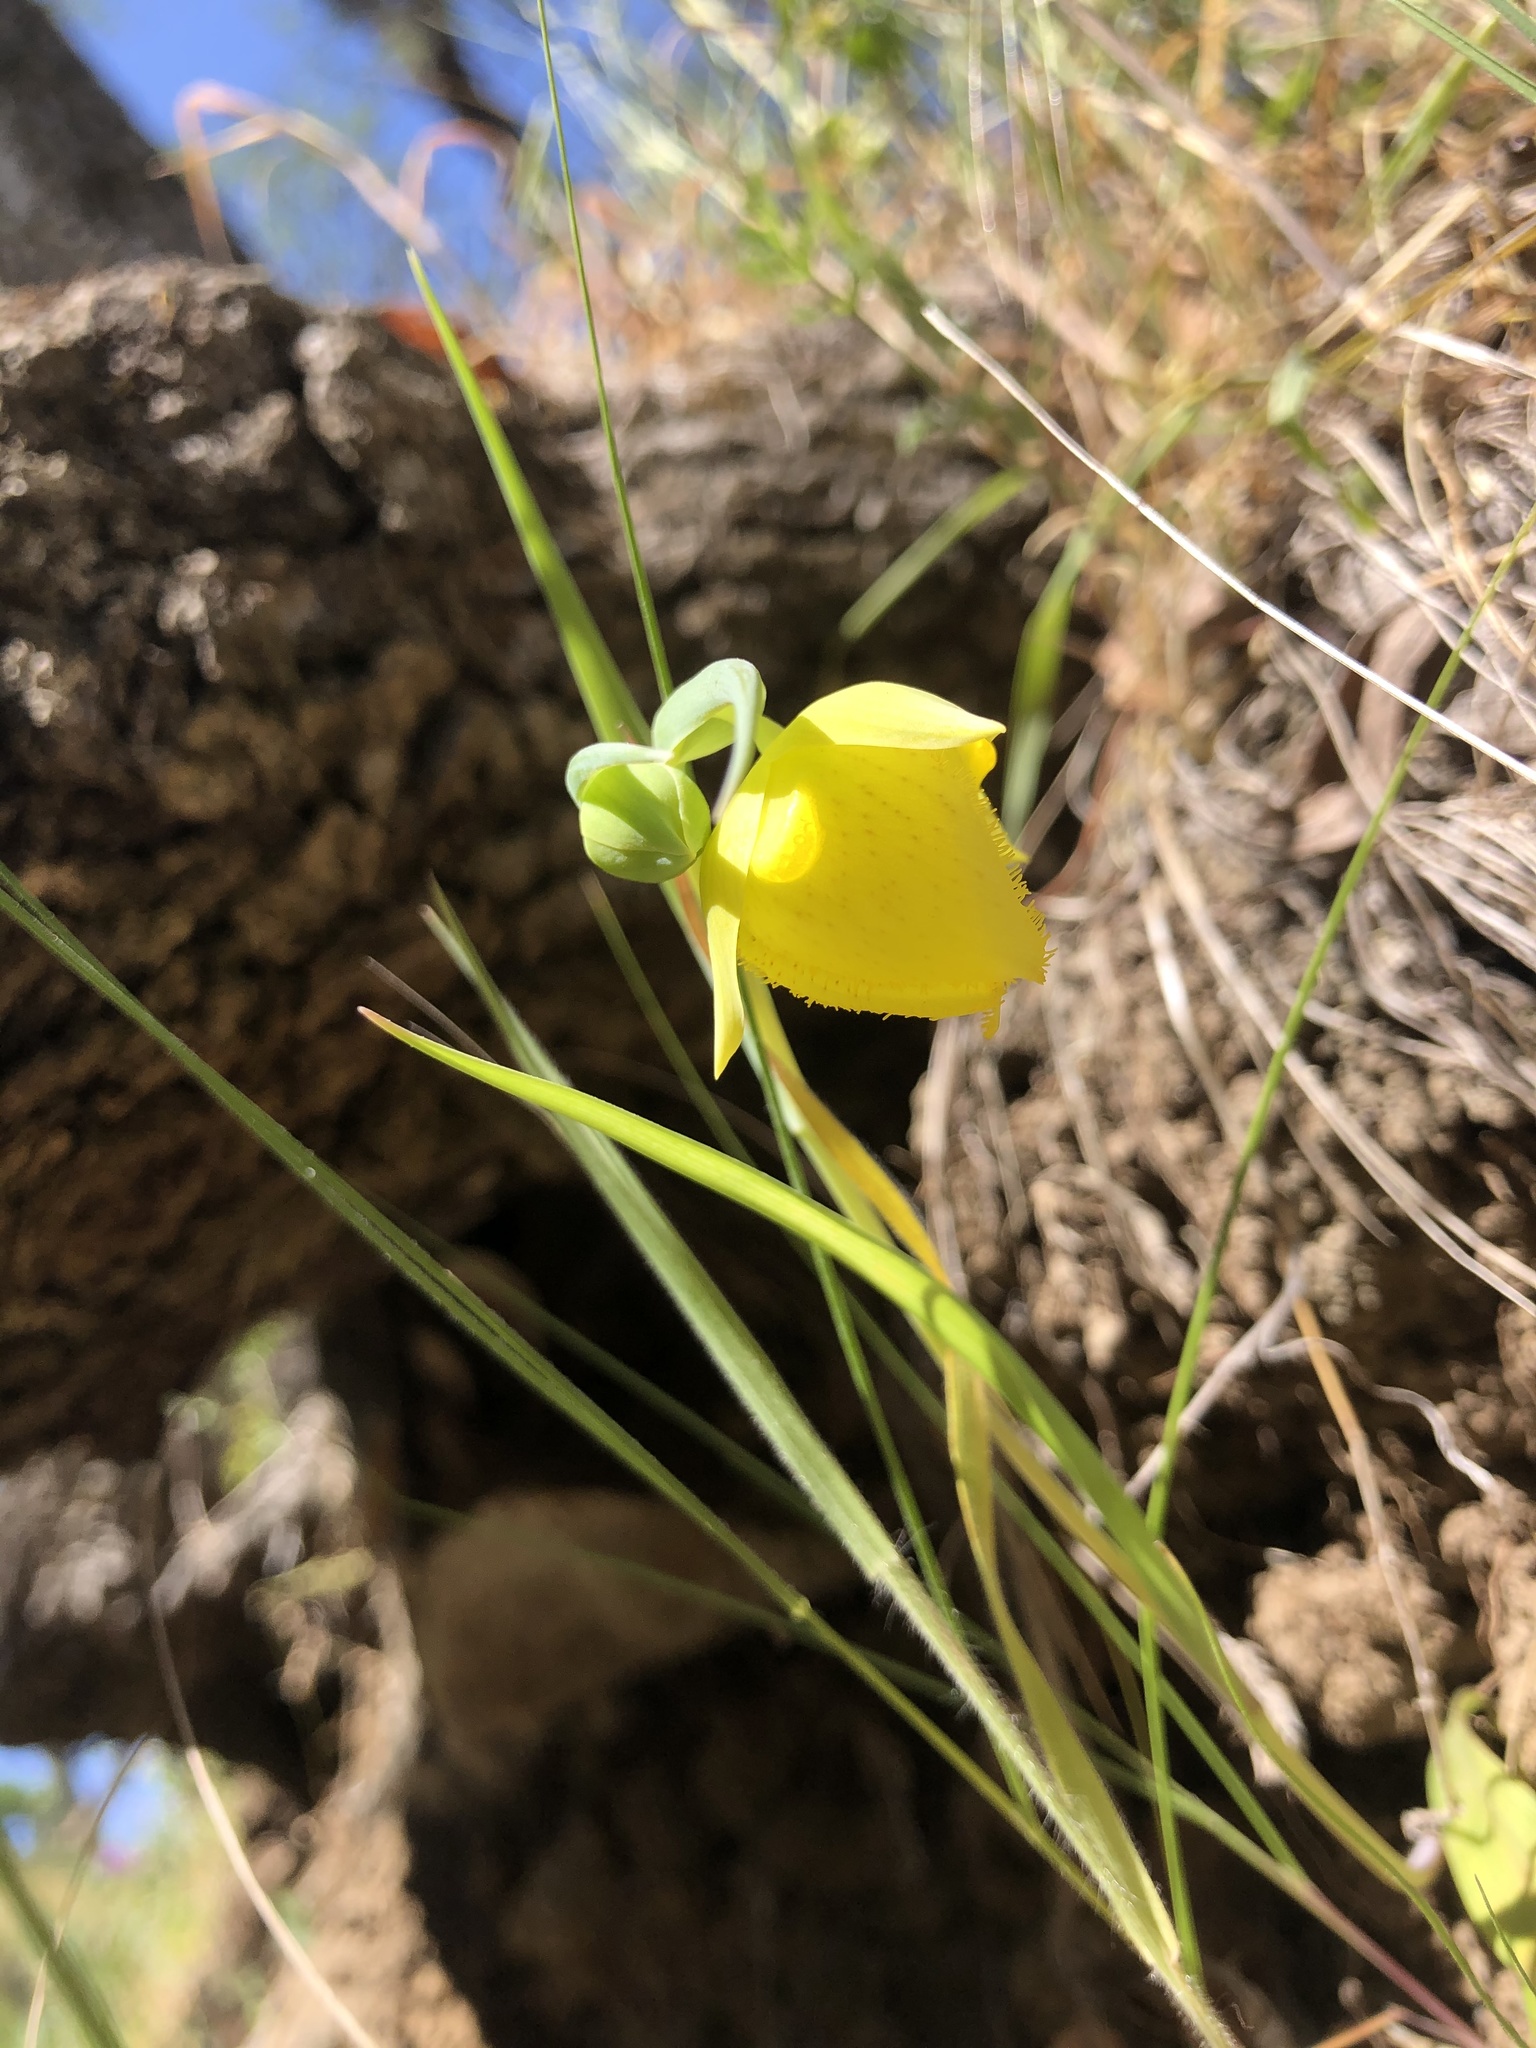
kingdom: Plantae
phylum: Tracheophyta
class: Liliopsida
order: Liliales
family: Liliaceae
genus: Calochortus
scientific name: Calochortus pulchellus
